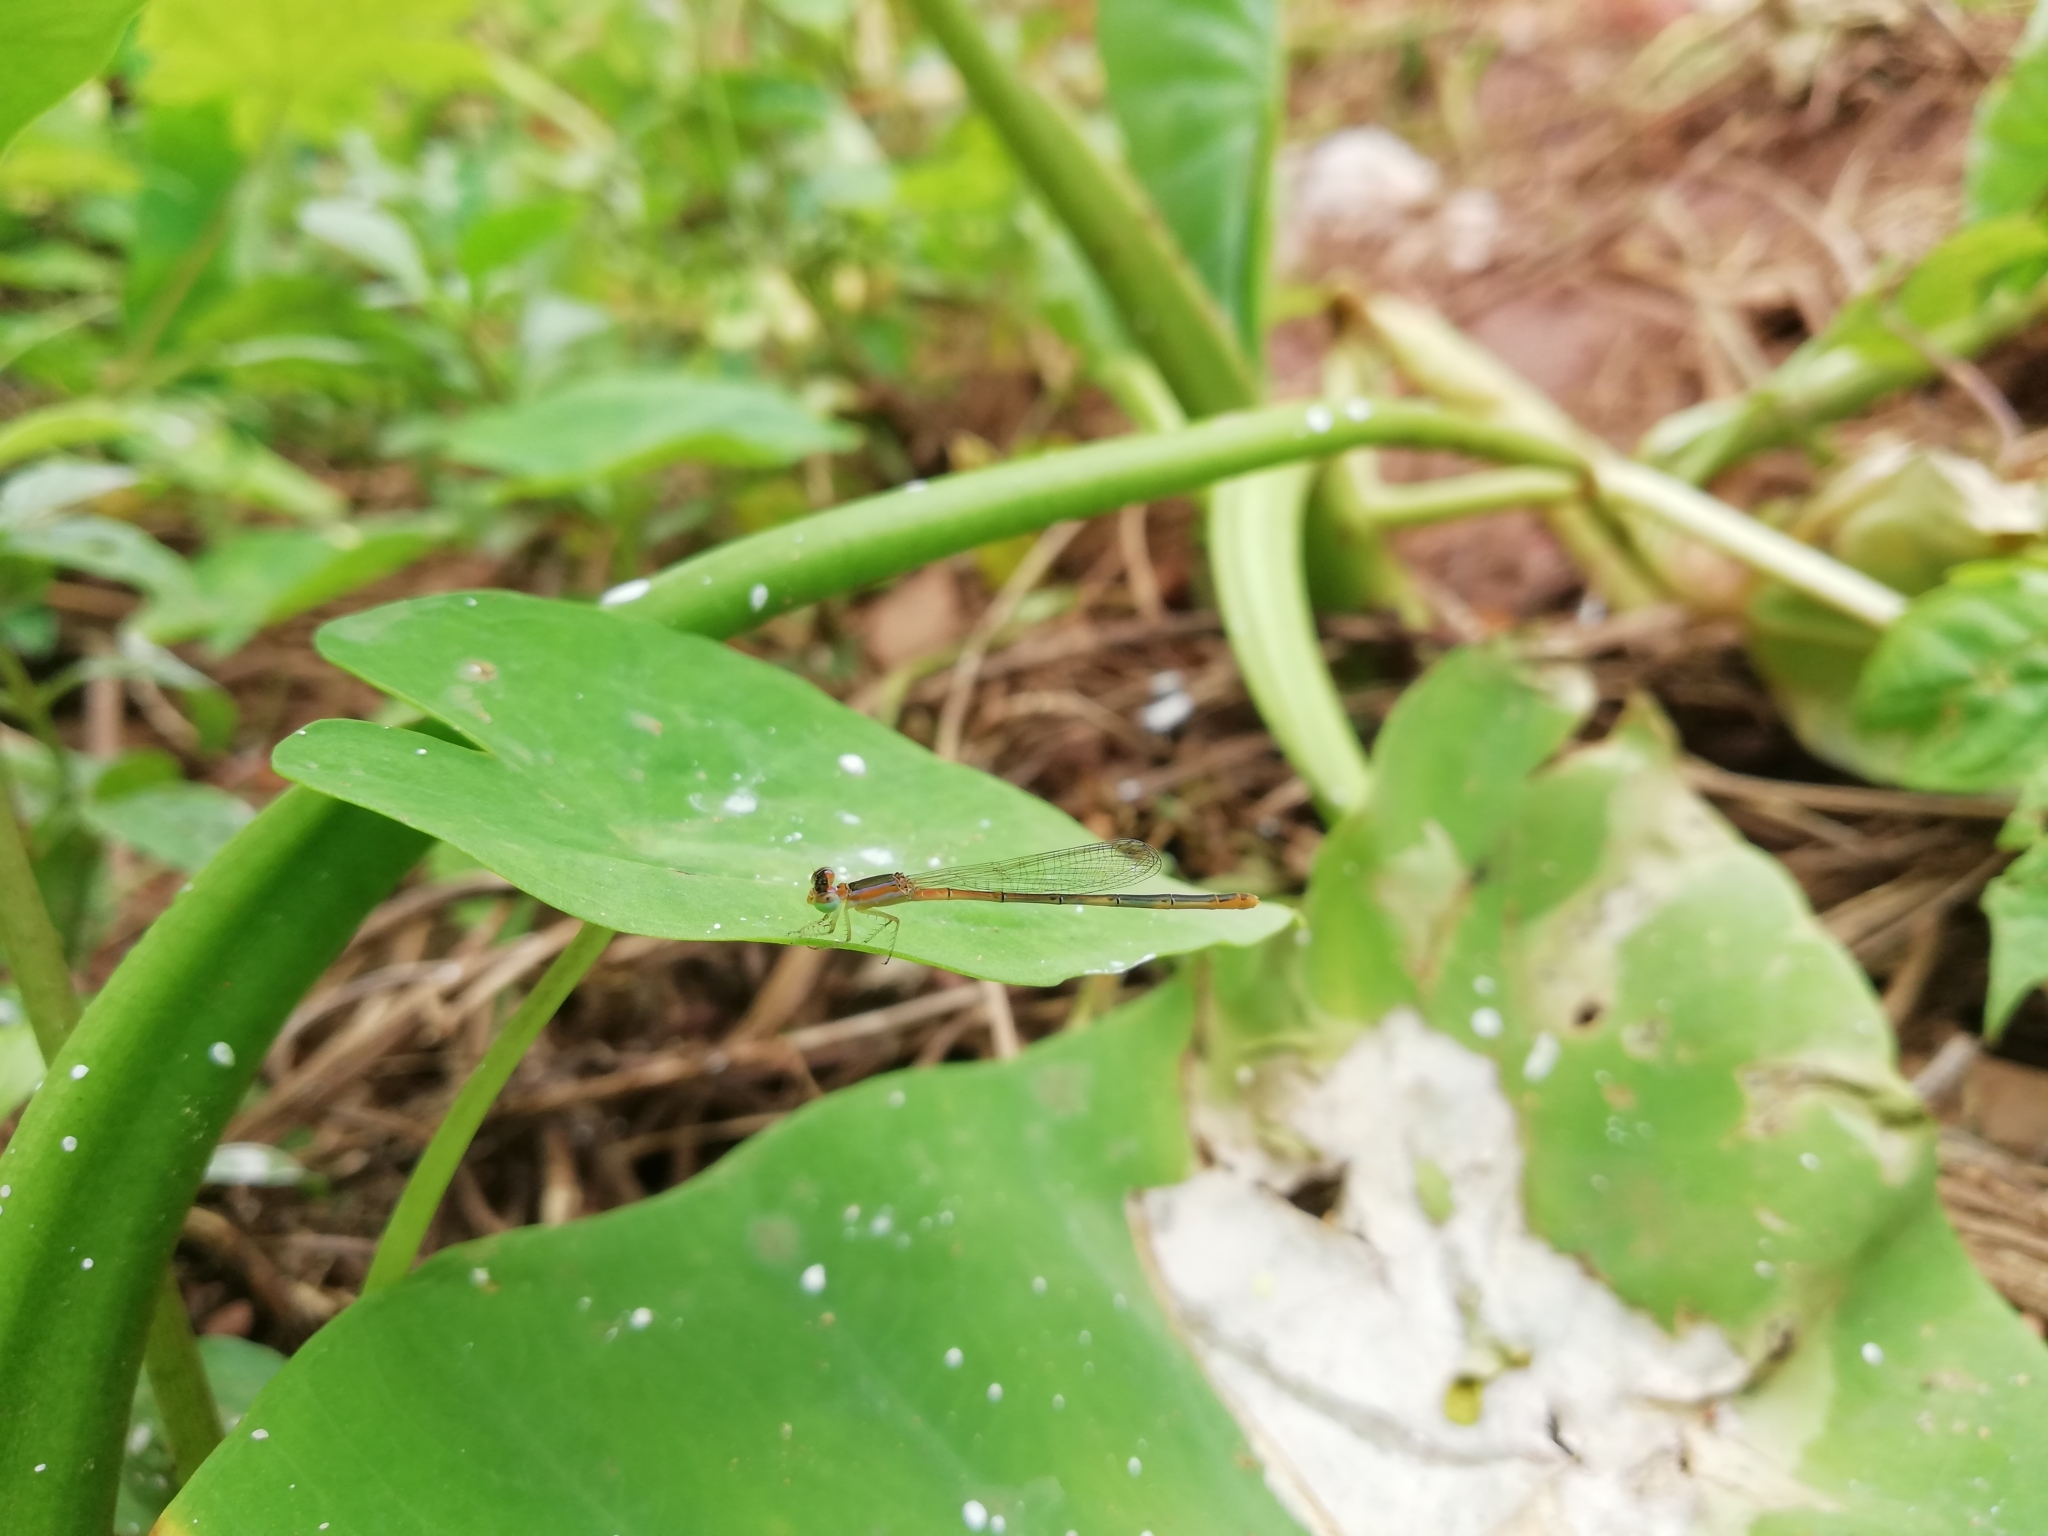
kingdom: Animalia
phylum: Arthropoda
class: Insecta
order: Odonata
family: Coenagrionidae
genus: Agriocnemis
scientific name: Agriocnemis pygmaea
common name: Pygmy wisp
